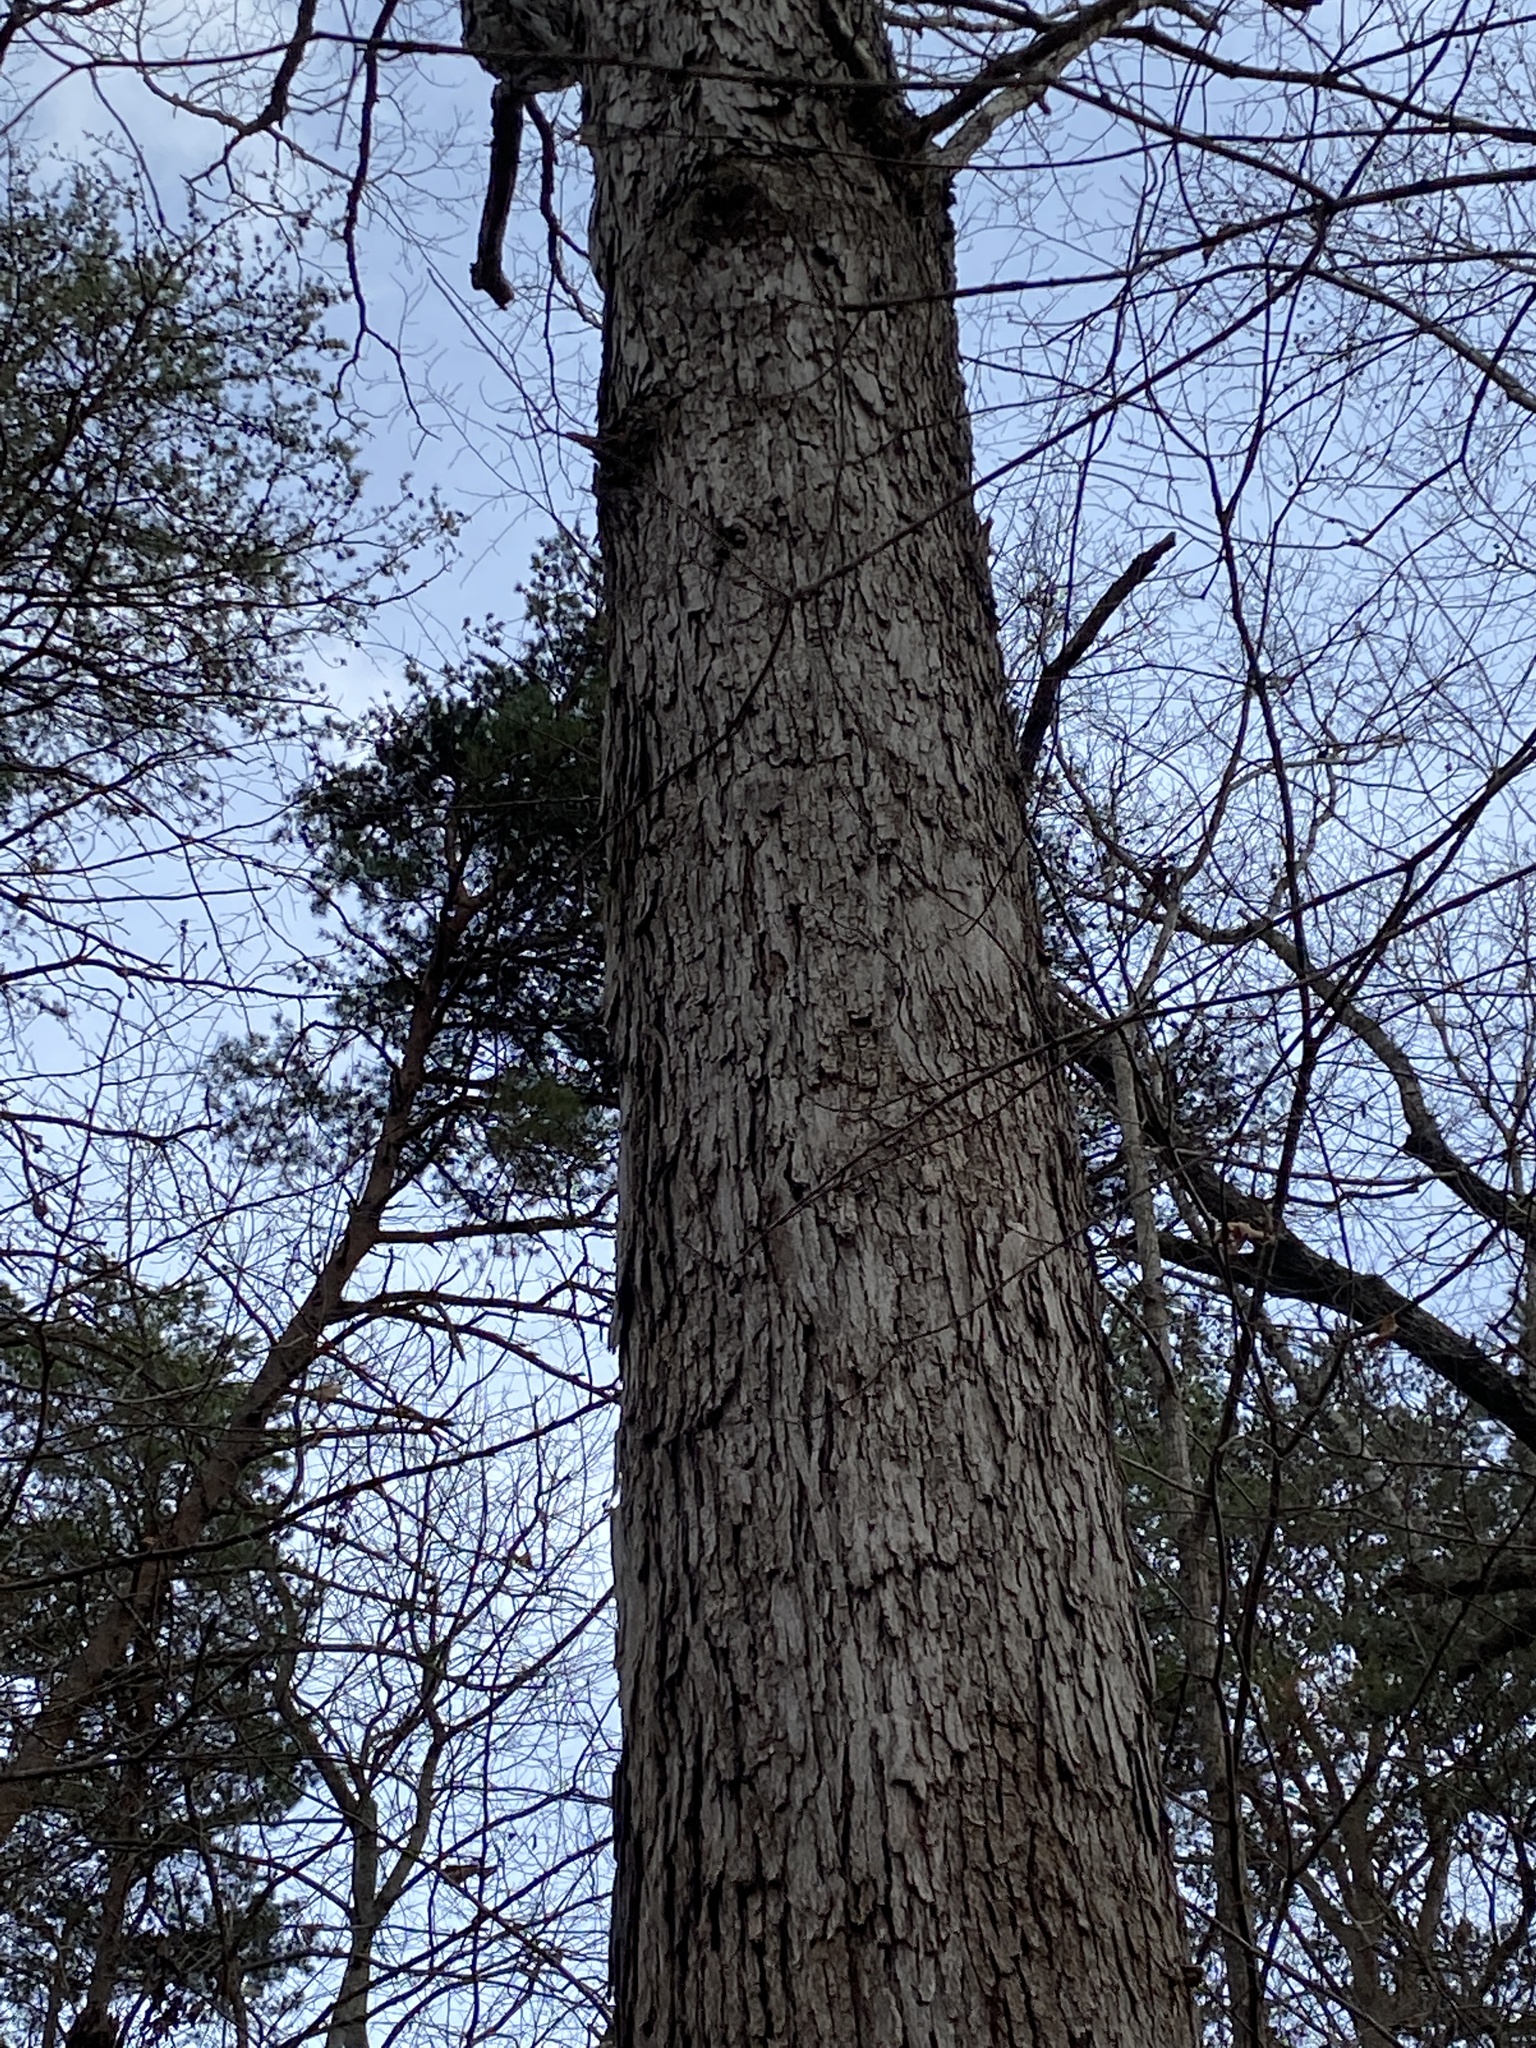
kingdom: Plantae
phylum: Tracheophyta
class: Magnoliopsida
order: Fagales
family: Fagaceae
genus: Quercus
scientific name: Quercus alba
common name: White oak
